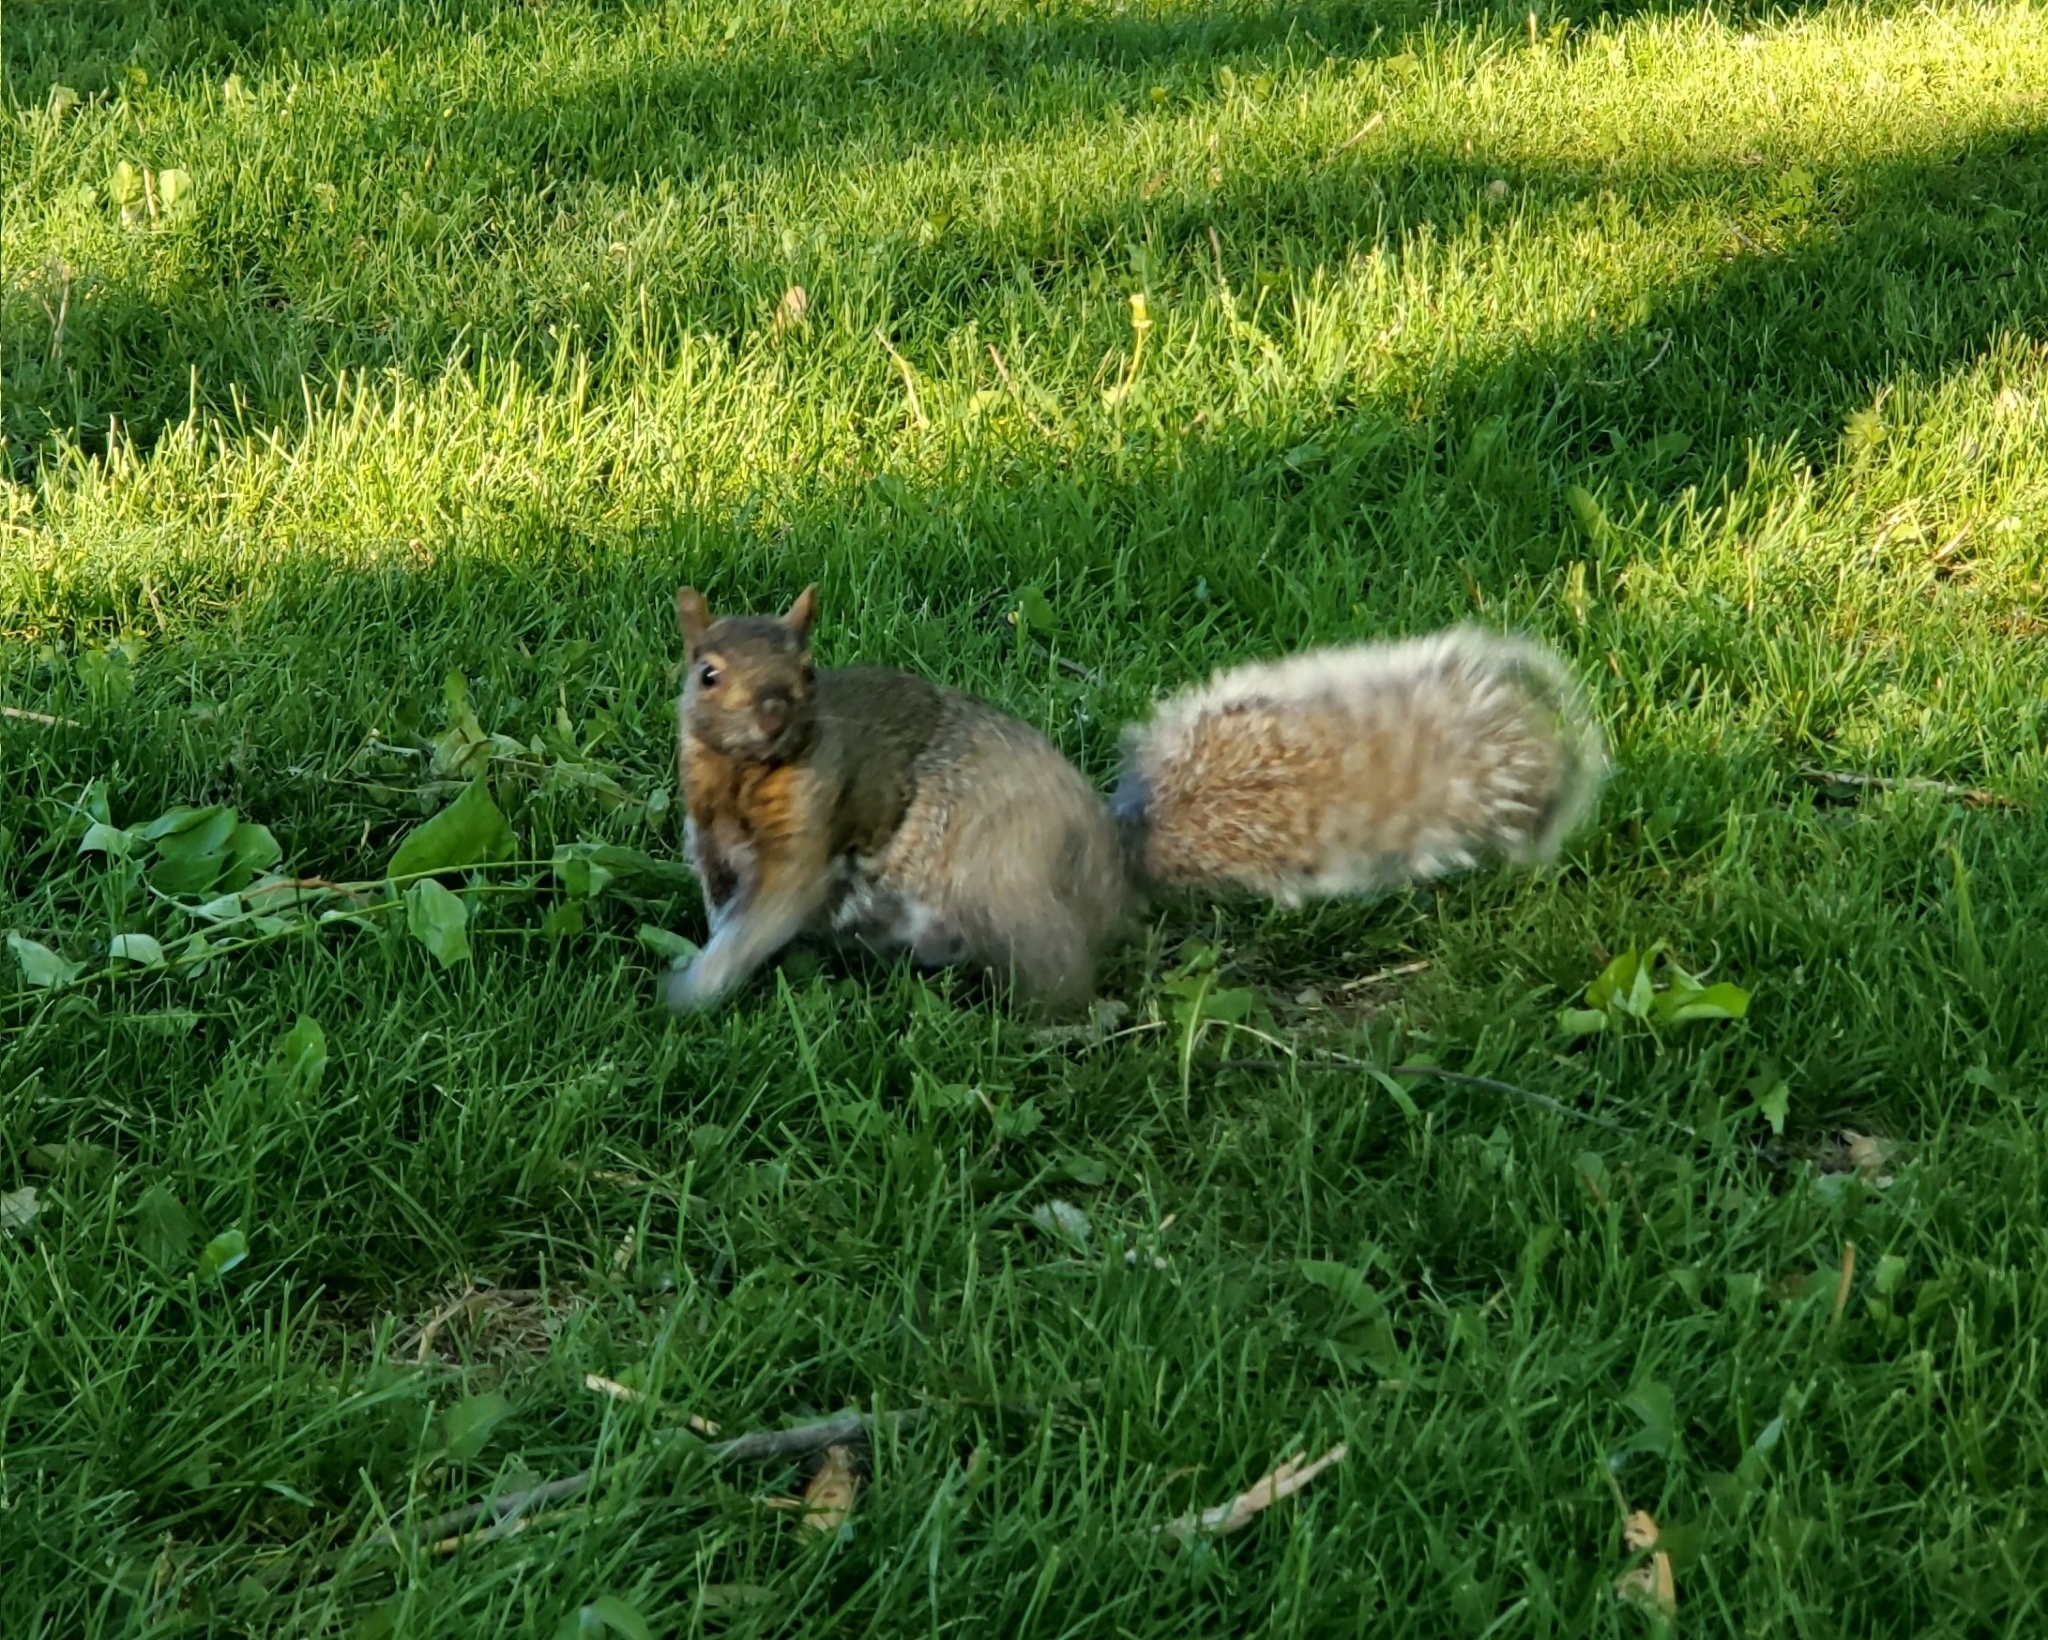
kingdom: Animalia
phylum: Chordata
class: Mammalia
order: Rodentia
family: Sciuridae
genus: Sciurus
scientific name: Sciurus carolinensis
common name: Eastern gray squirrel
